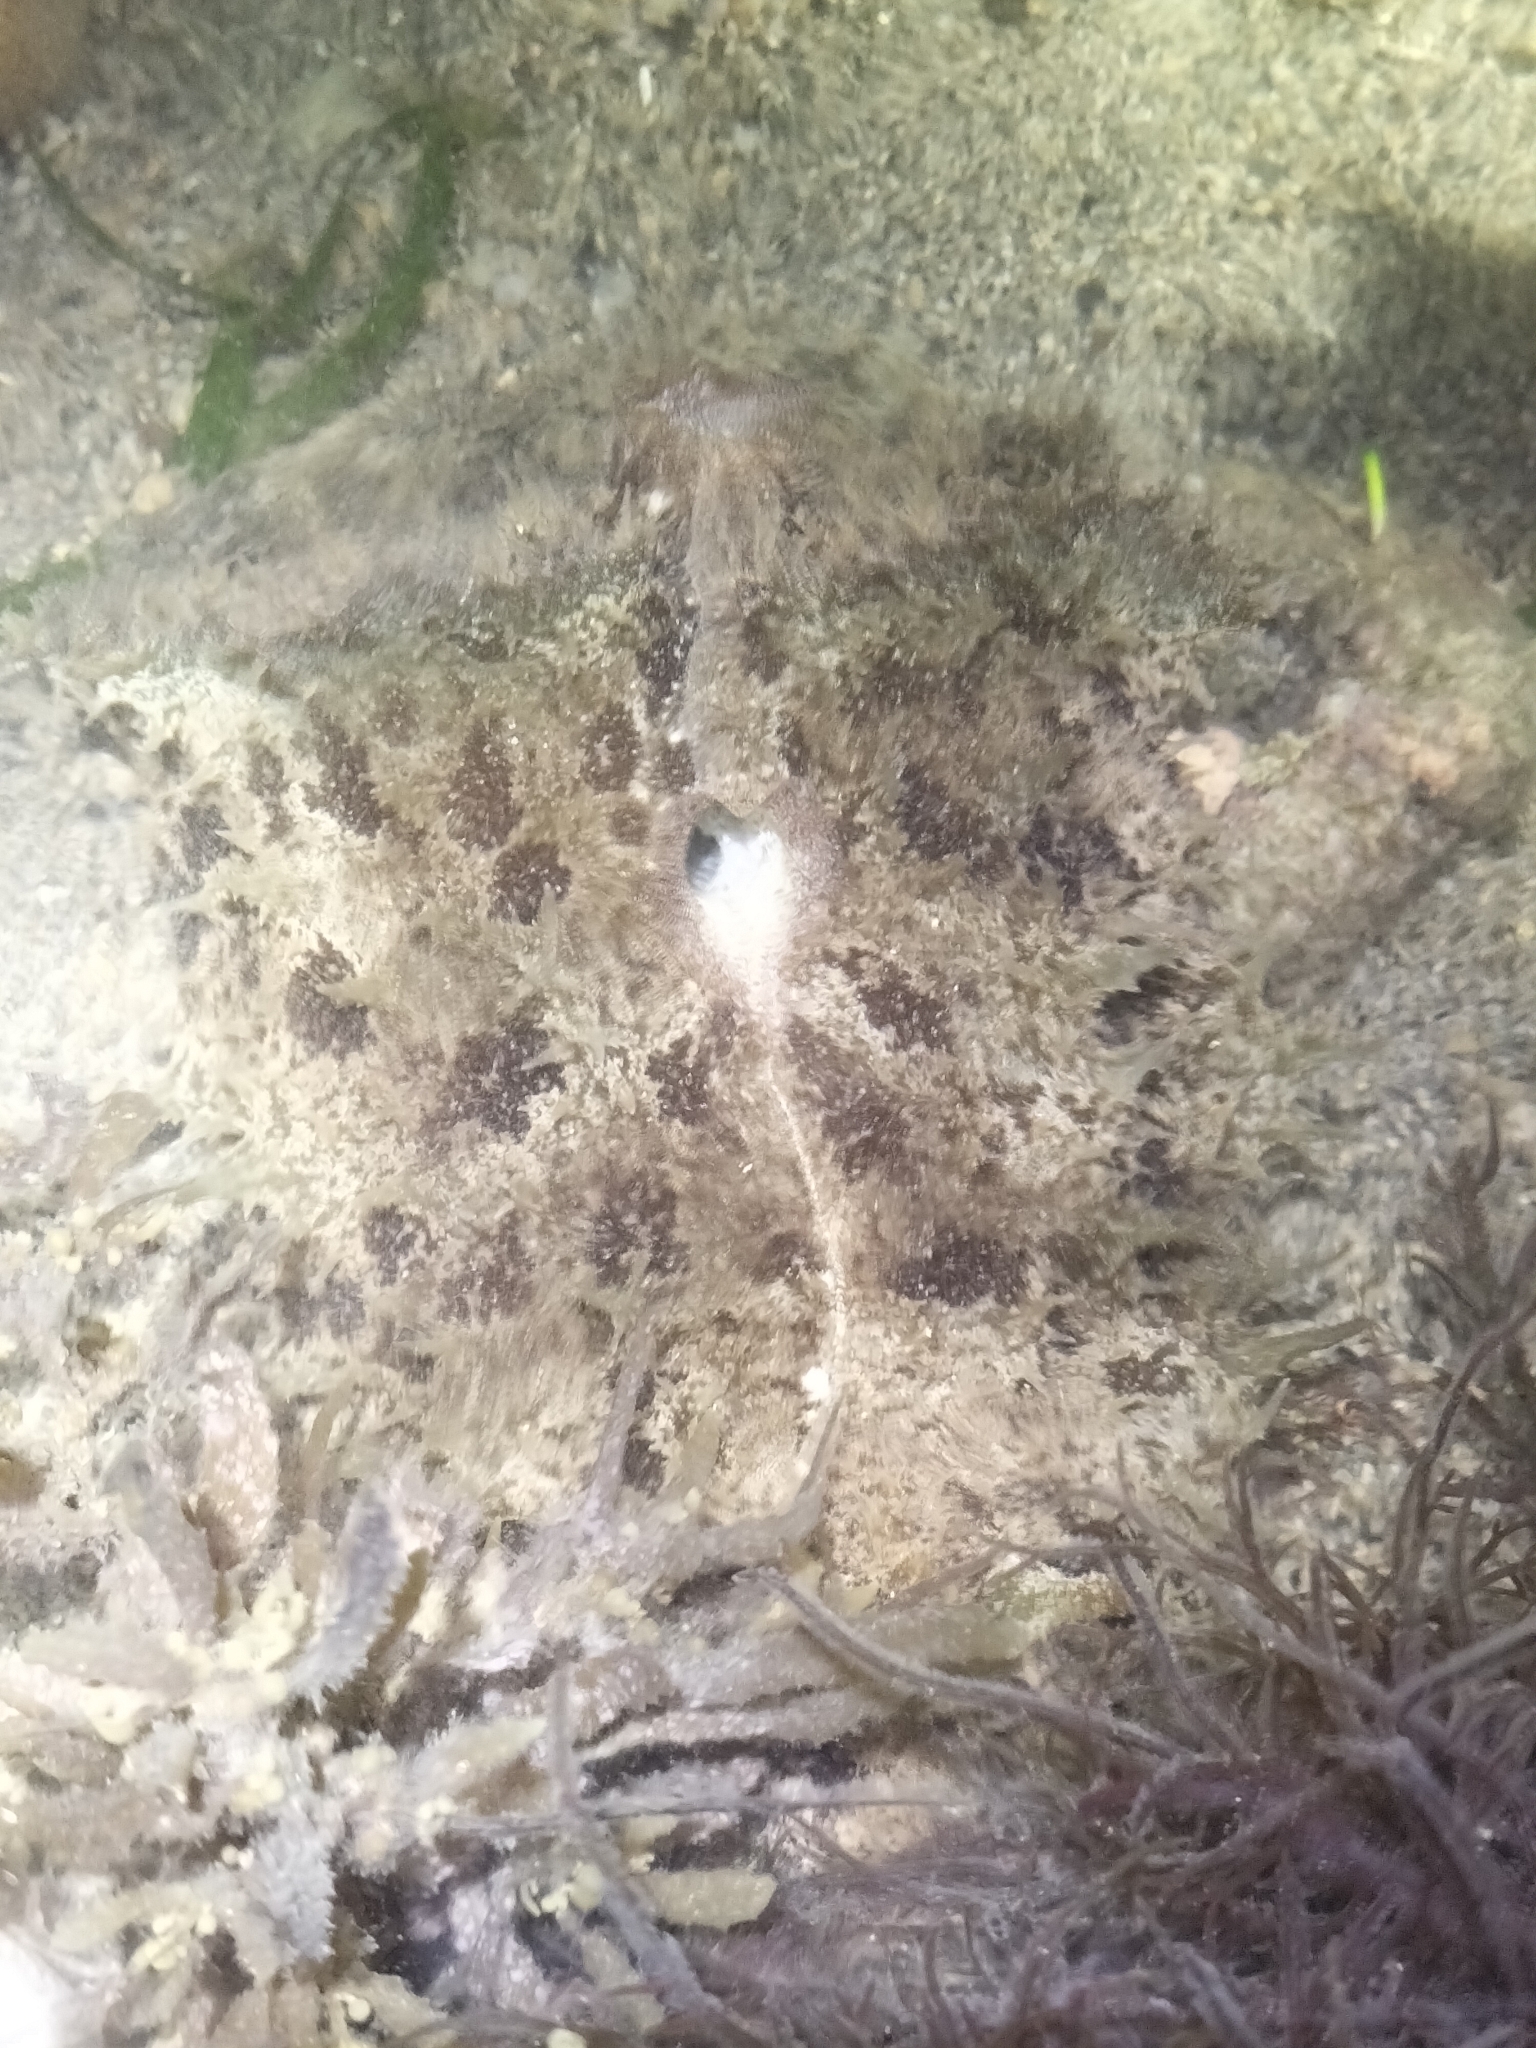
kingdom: Animalia
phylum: Mollusca
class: Gastropoda
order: Aplysiida
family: Aplysiidae
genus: Dolabella
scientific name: Dolabella auricularia
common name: Blunt-end seahare
